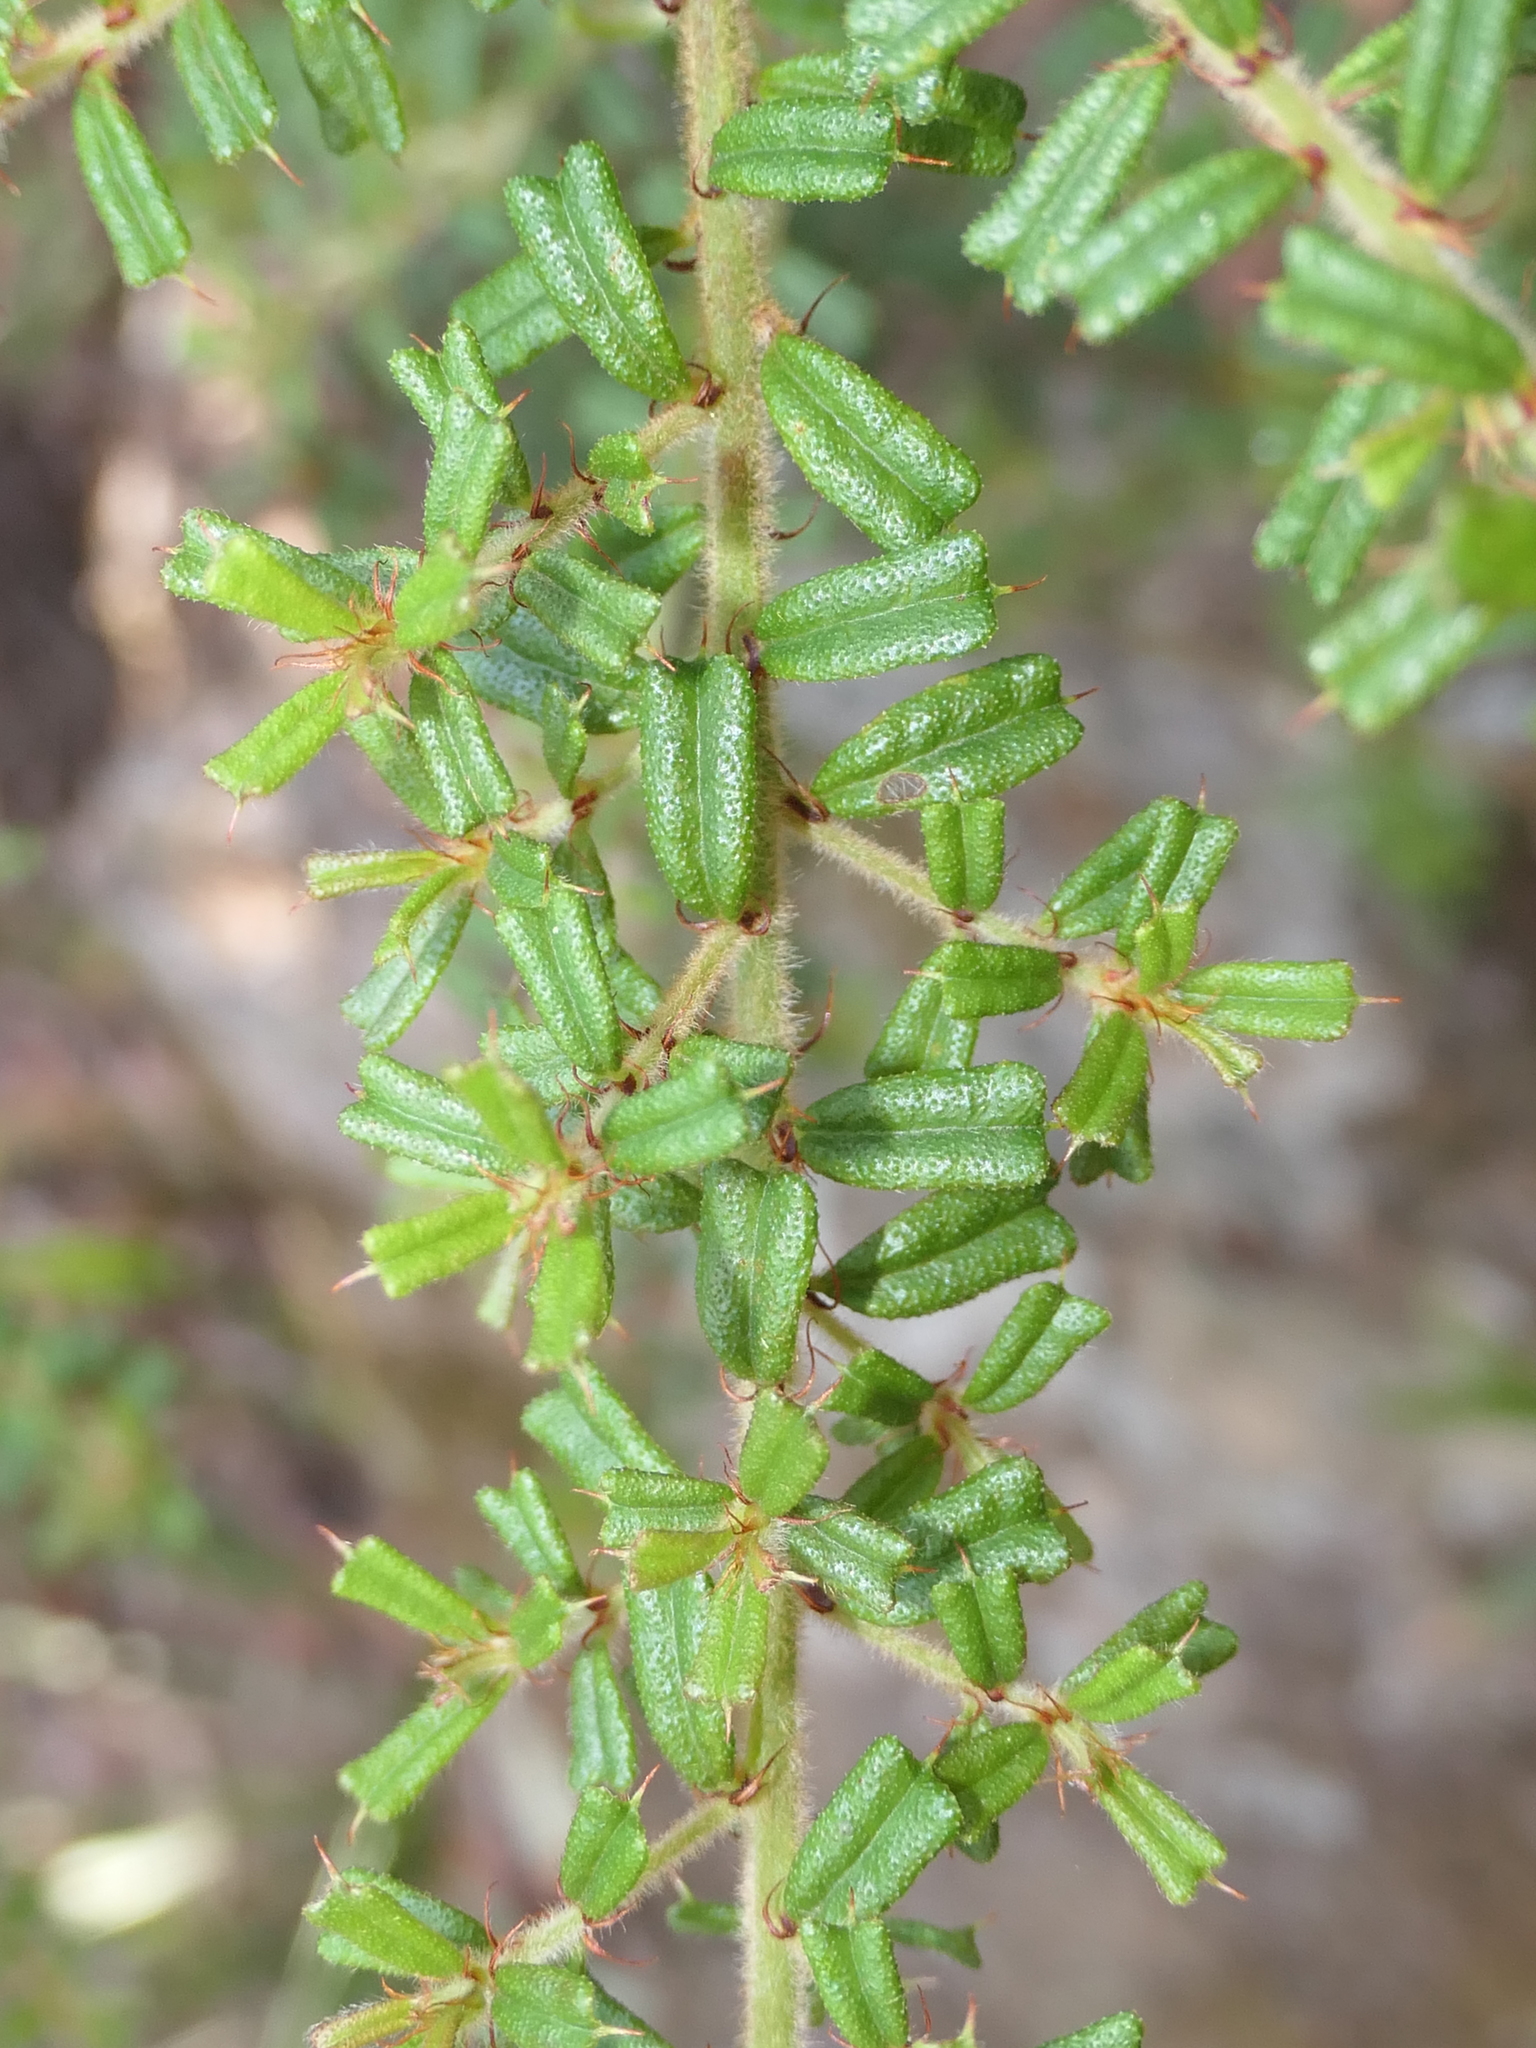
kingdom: Plantae
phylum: Tracheophyta
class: Magnoliopsida
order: Fabales
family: Fabaceae
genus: Pultenaea
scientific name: Pultenaea scabra
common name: Rough bush-pea
